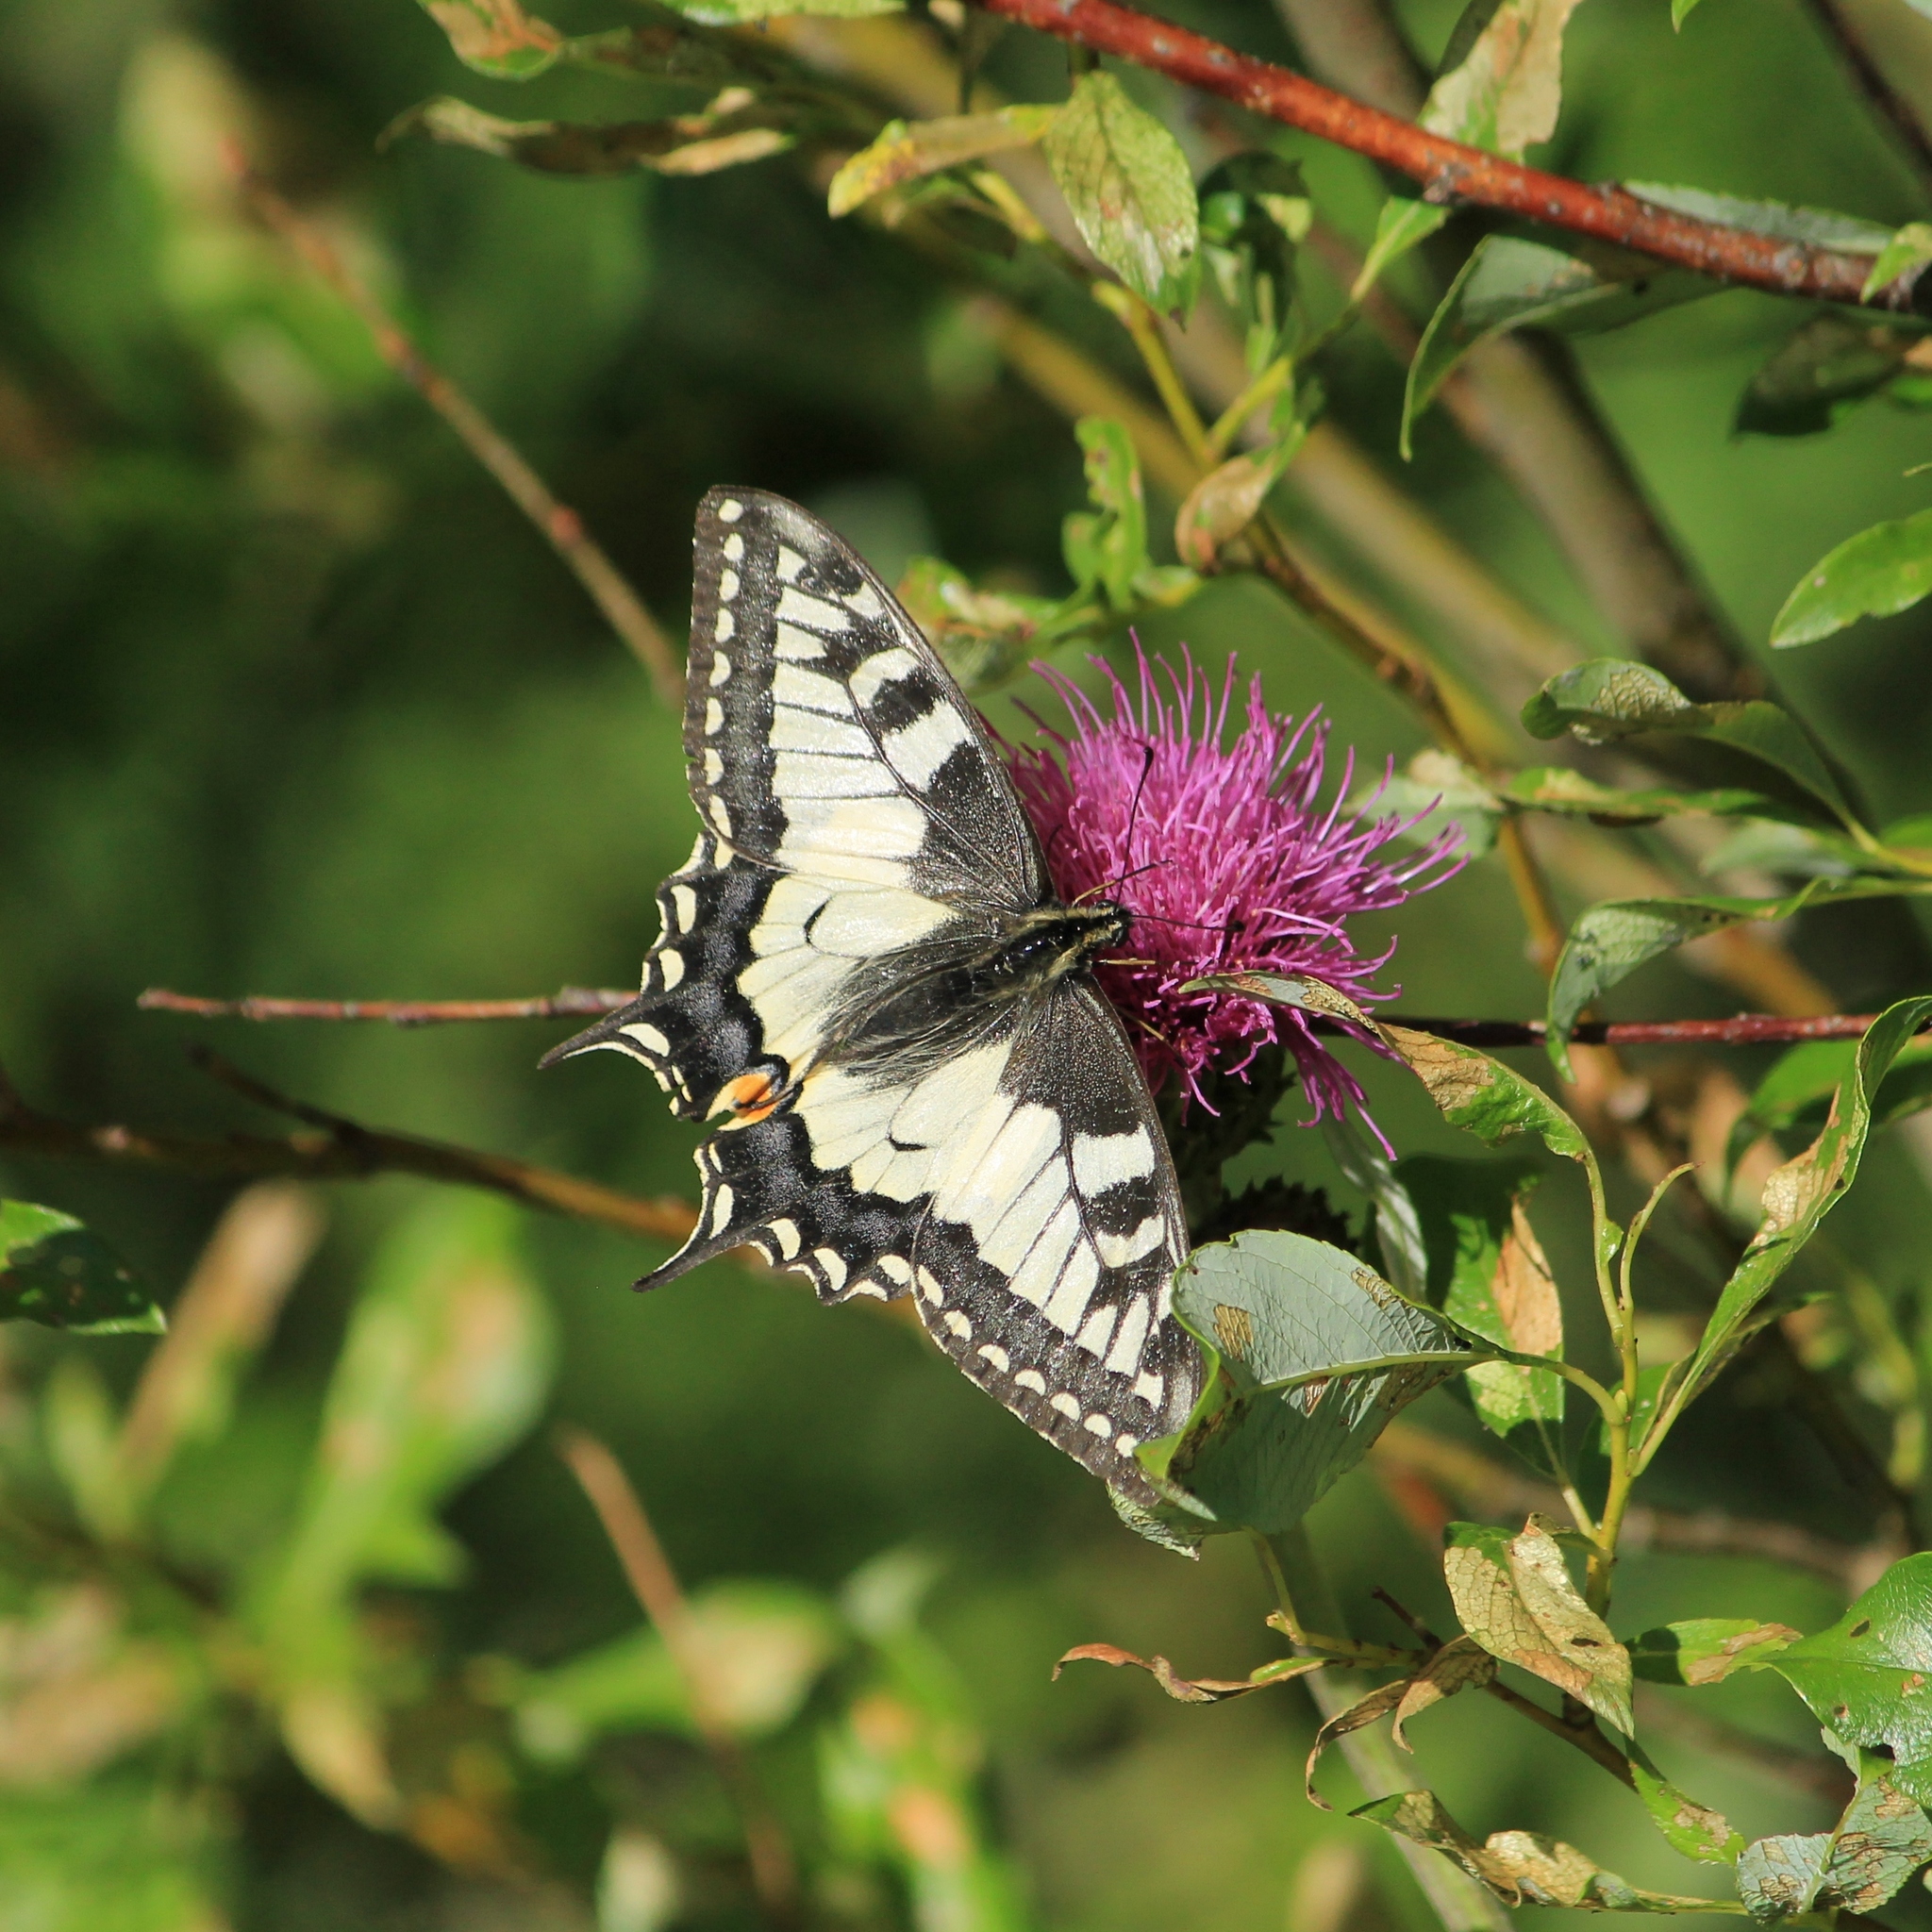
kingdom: Animalia
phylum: Arthropoda
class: Insecta
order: Lepidoptera
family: Papilionidae
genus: Papilio
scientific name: Papilio machaon
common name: Swallowtail
